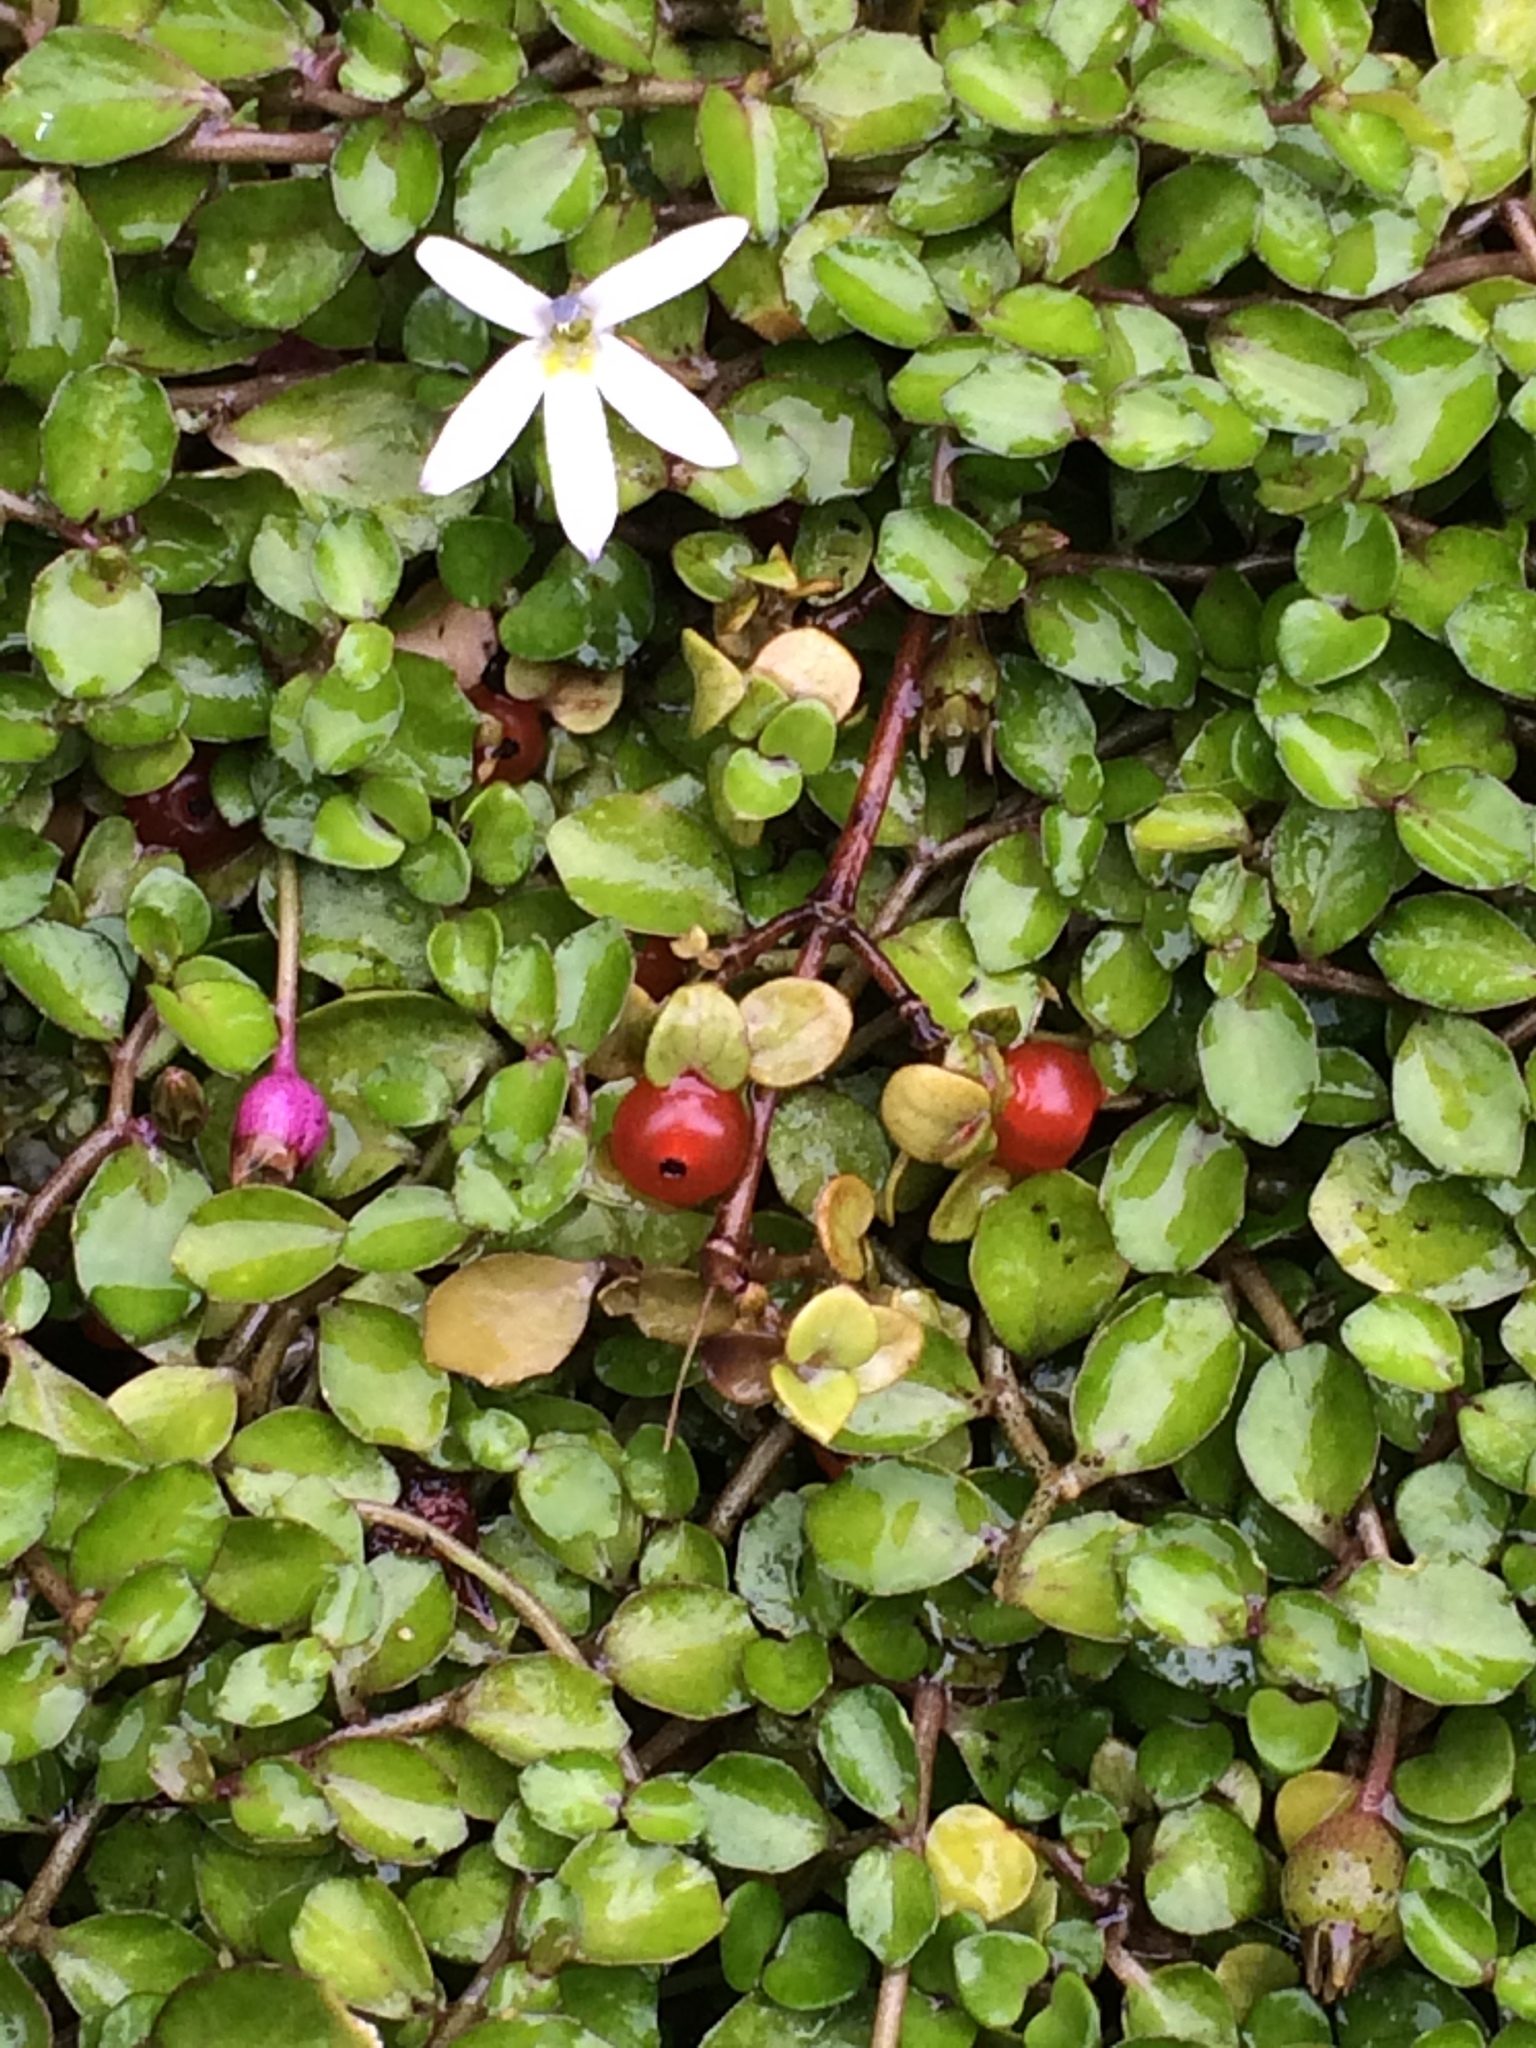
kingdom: Plantae
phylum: Tracheophyta
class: Magnoliopsida
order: Gentianales
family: Rubiaceae
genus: Nertera
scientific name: Nertera granadensis
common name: Beadplant
